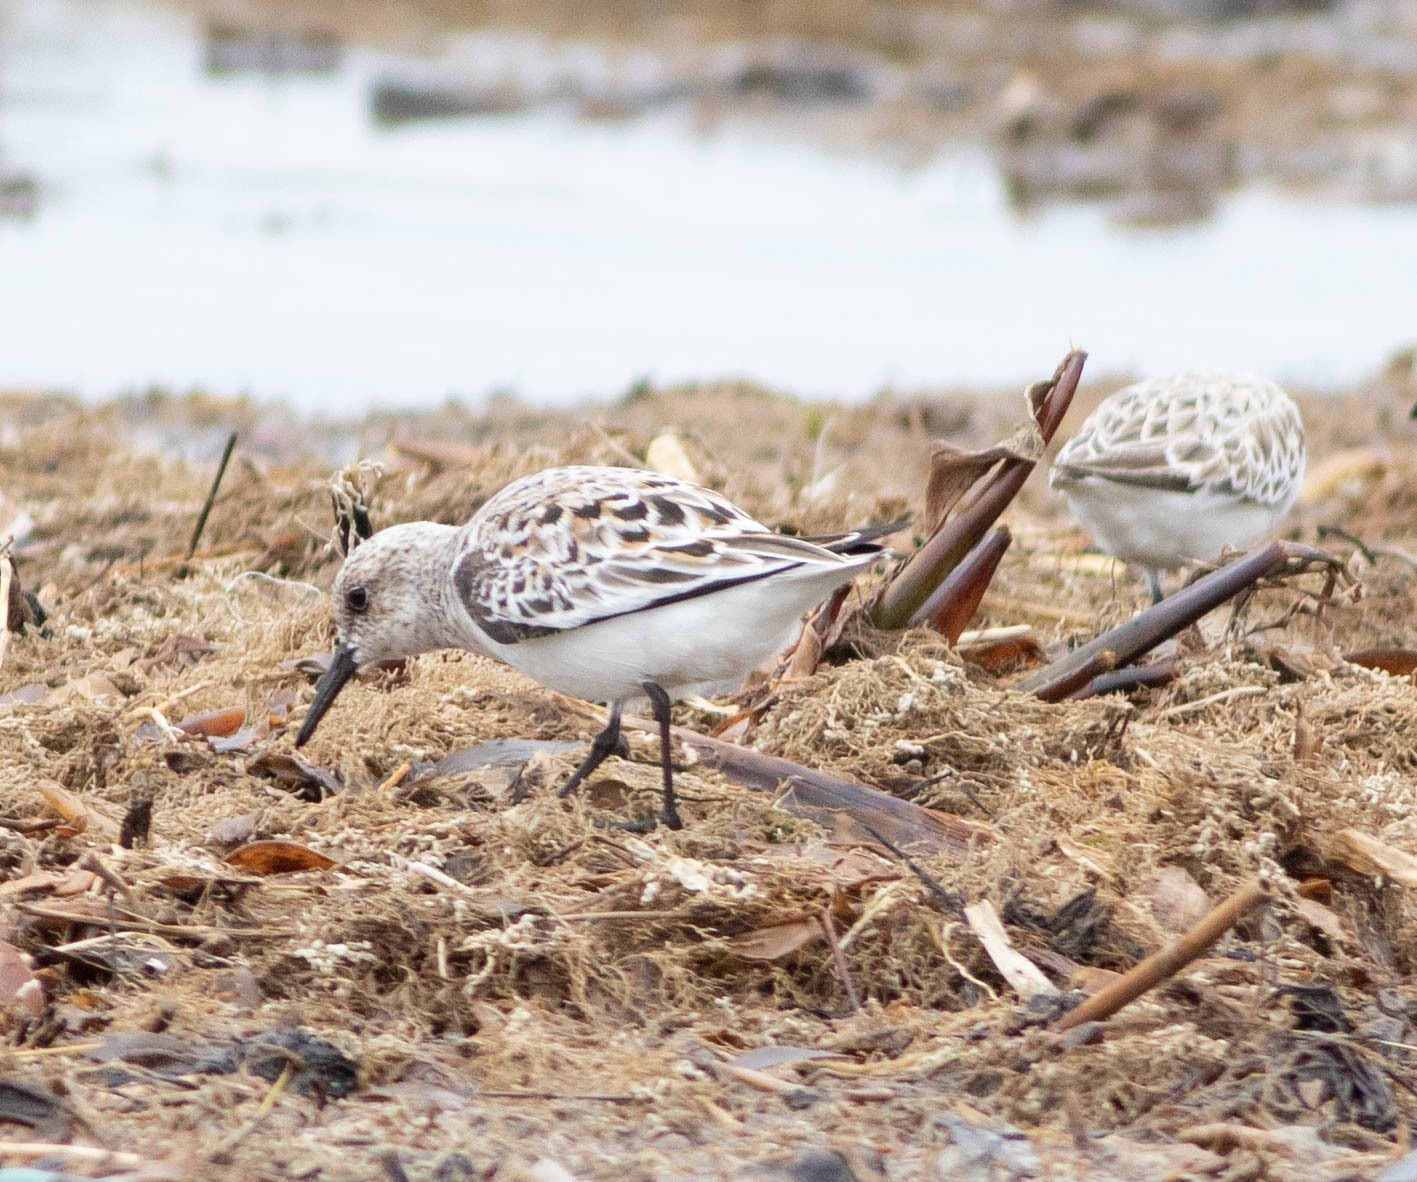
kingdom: Animalia
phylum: Chordata
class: Aves
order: Charadriiformes
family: Scolopacidae
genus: Calidris
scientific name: Calidris alba
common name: Sanderling
